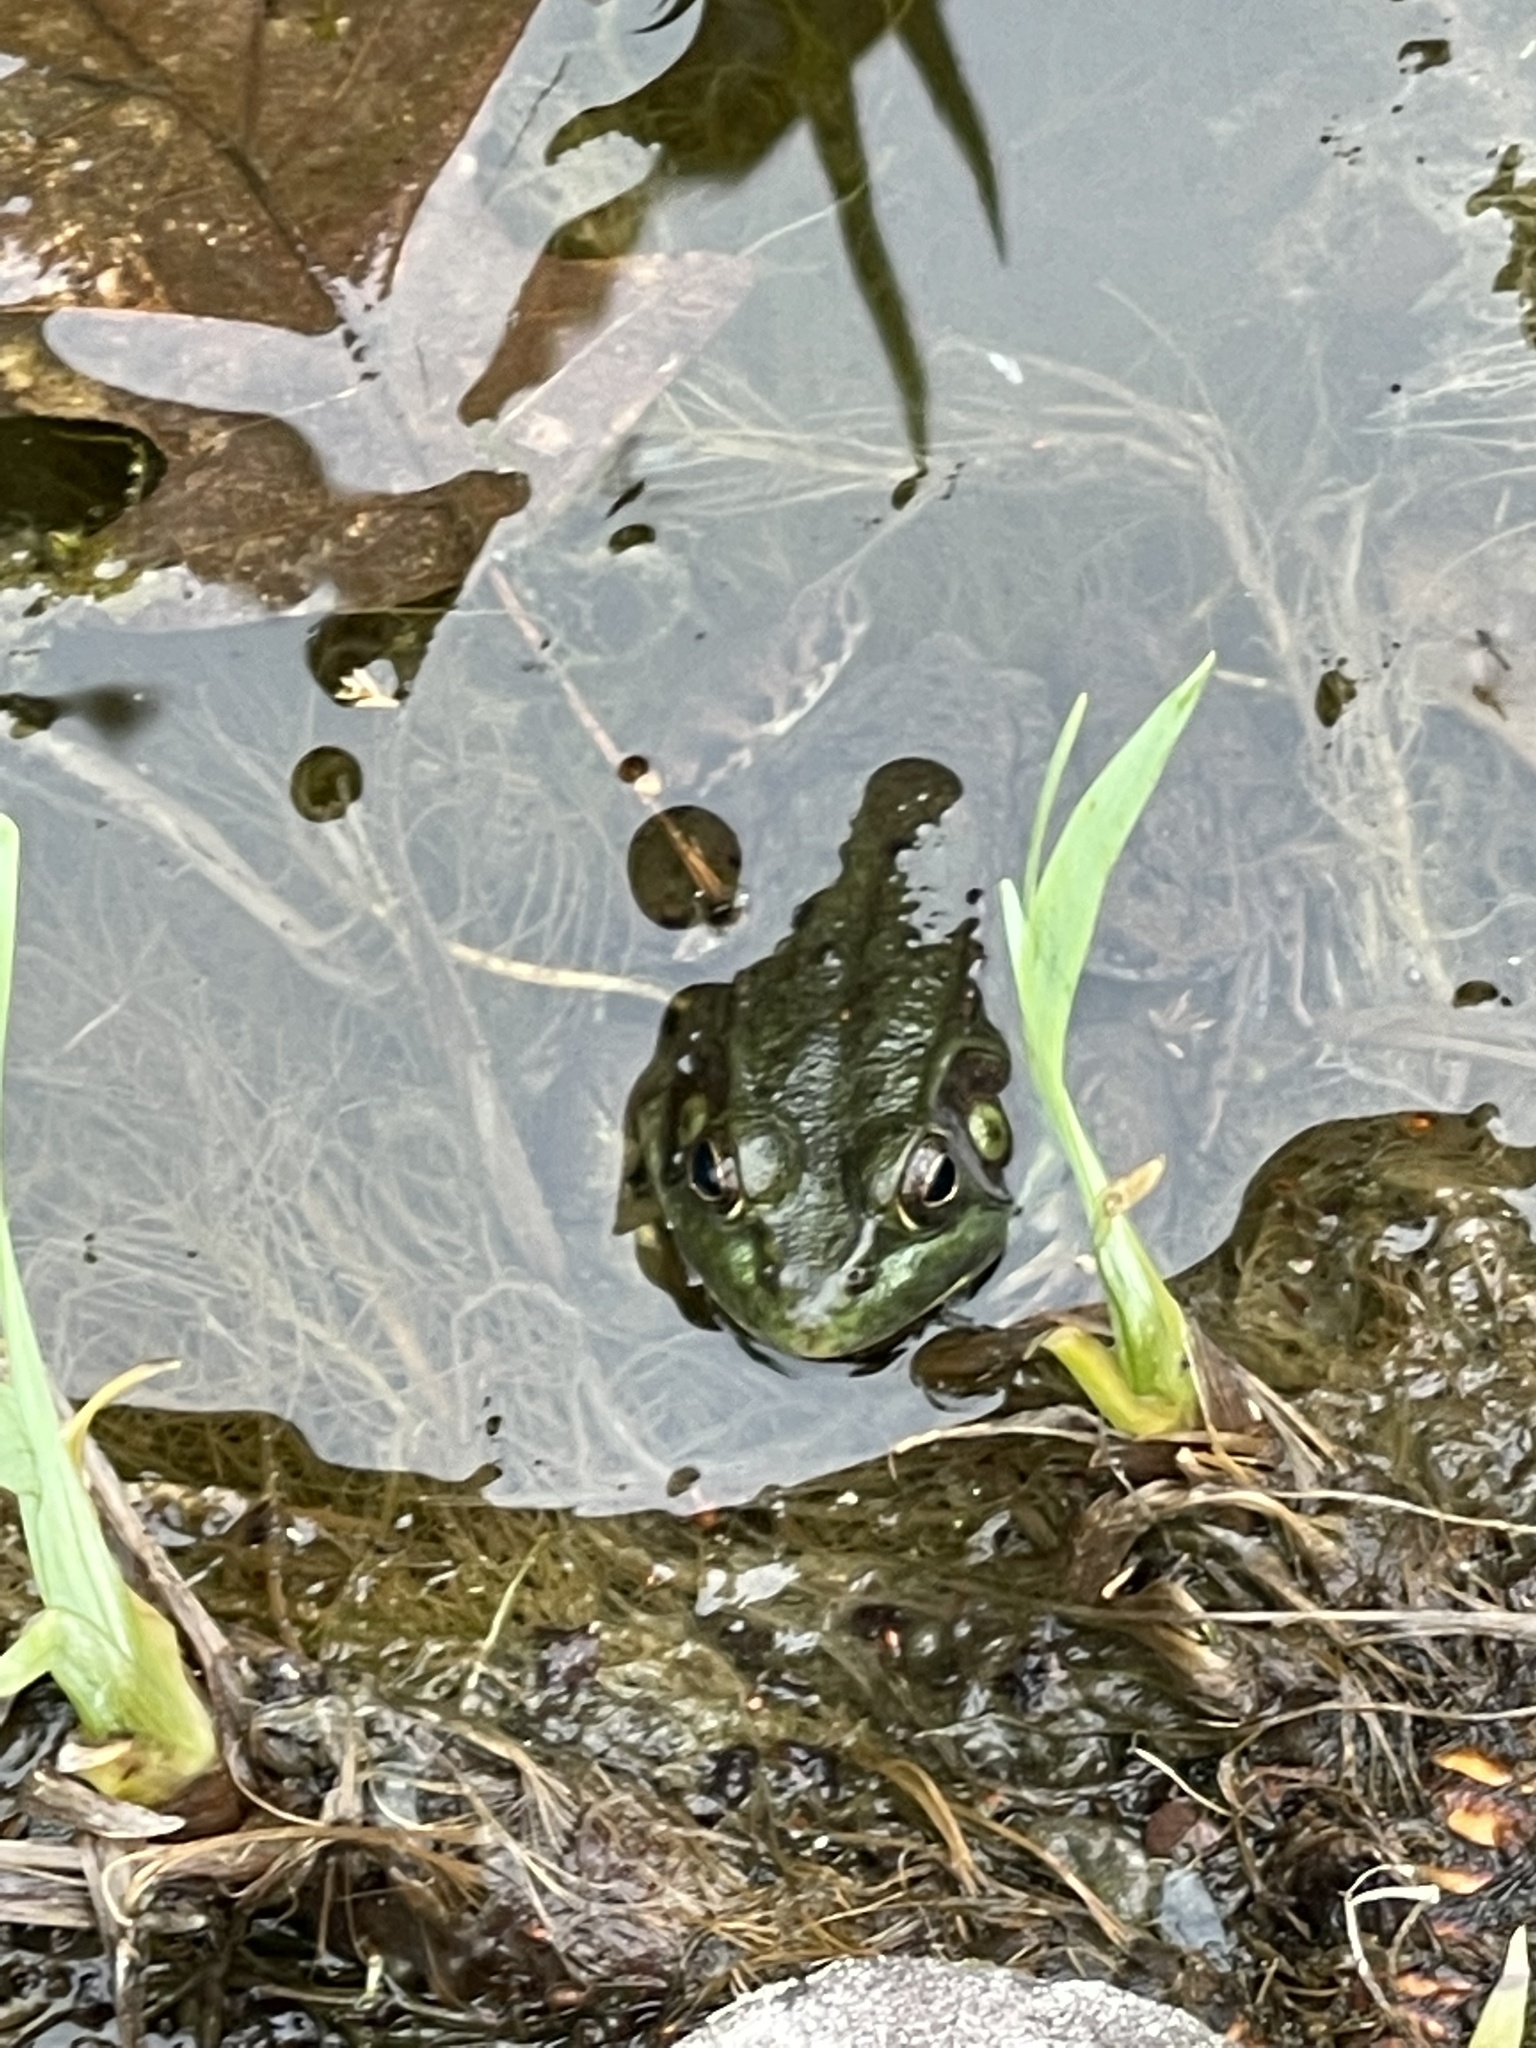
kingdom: Animalia
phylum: Chordata
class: Amphibia
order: Anura
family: Ranidae
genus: Lithobates
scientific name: Lithobates clamitans
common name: Green frog
